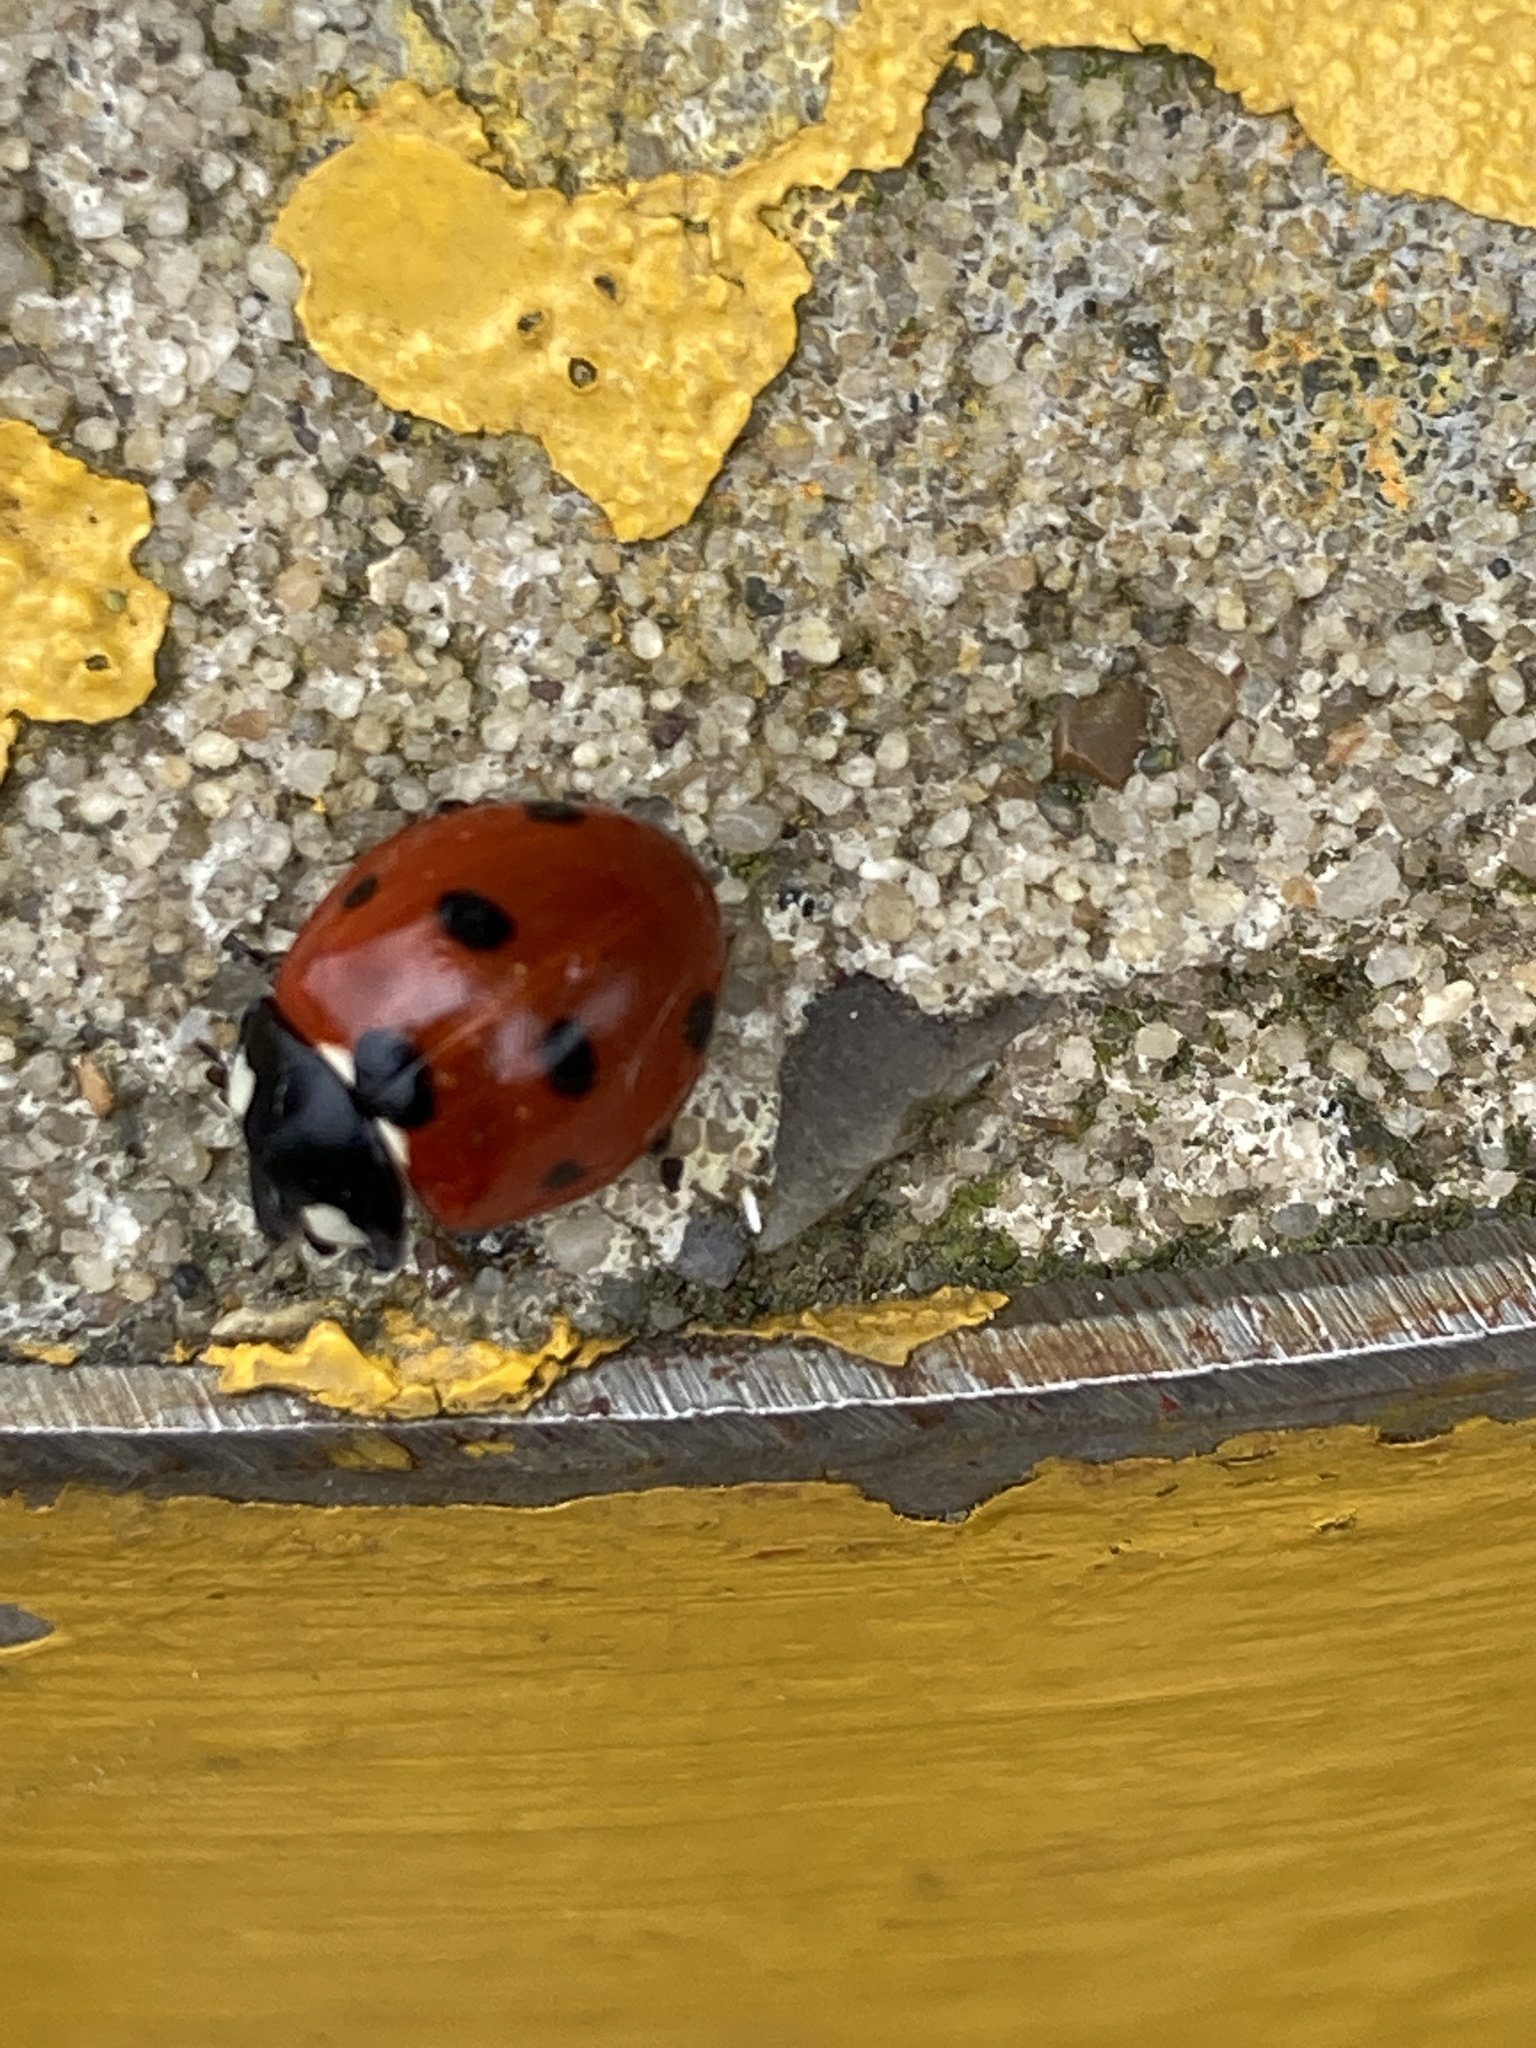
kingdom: Animalia
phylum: Arthropoda
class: Insecta
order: Coleoptera
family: Coccinellidae
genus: Coccinella
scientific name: Coccinella septempunctata
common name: Sevenspotted lady beetle
